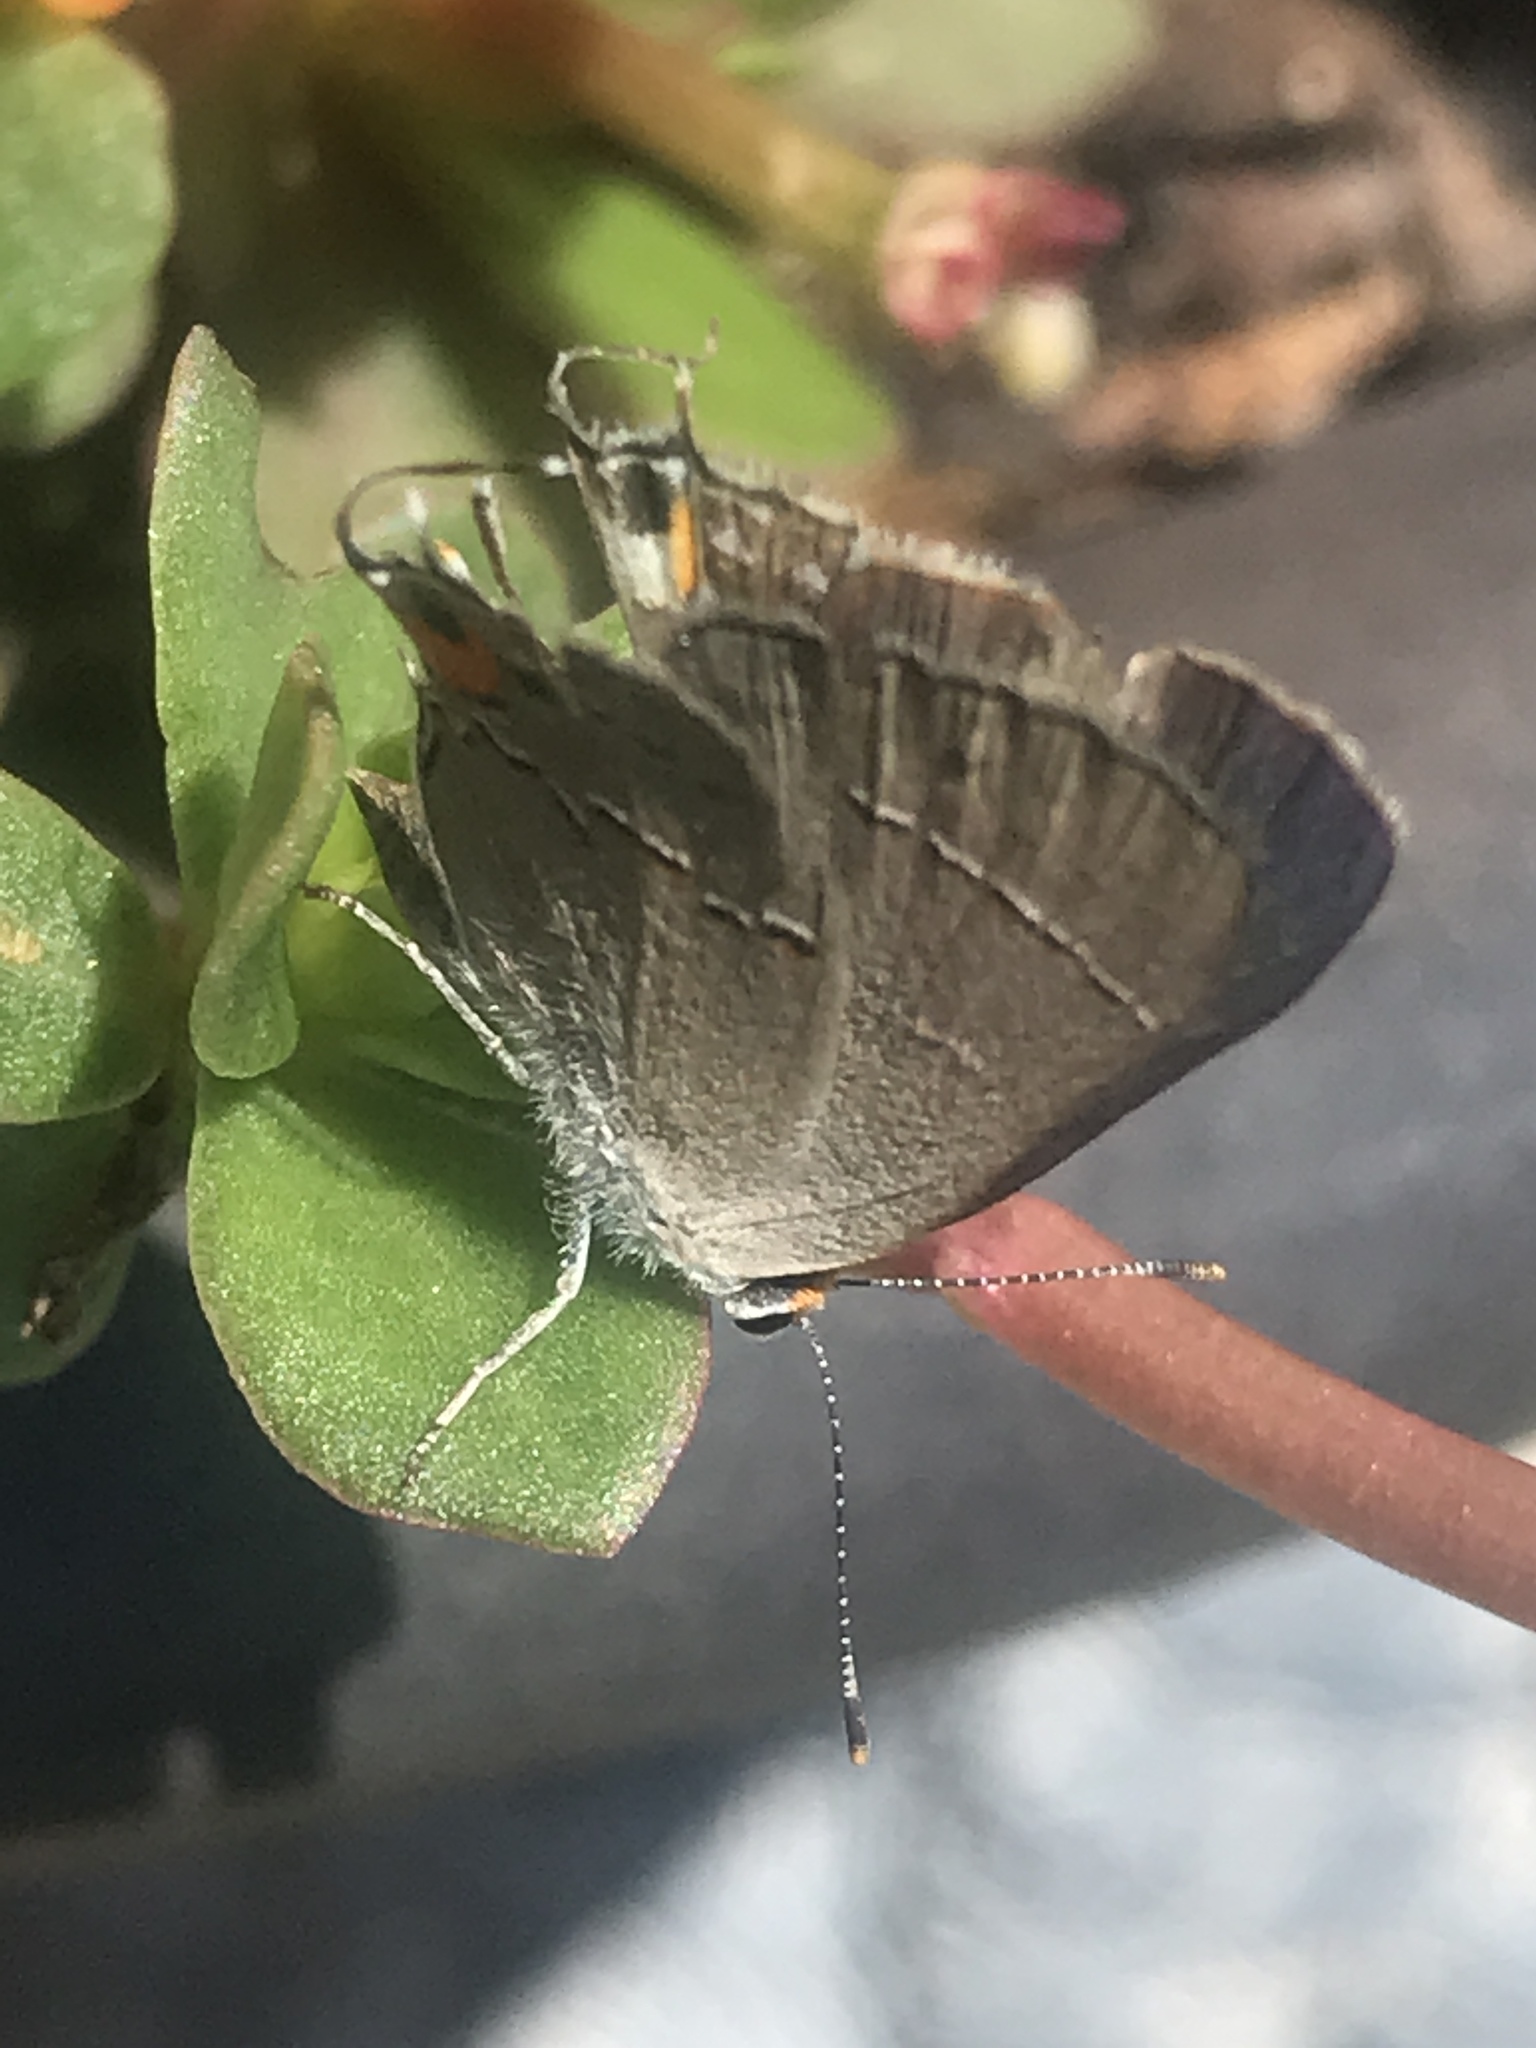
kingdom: Animalia
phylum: Arthropoda
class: Insecta
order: Lepidoptera
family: Lycaenidae
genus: Strymon
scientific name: Strymon melinus
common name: Gray hairstreak
